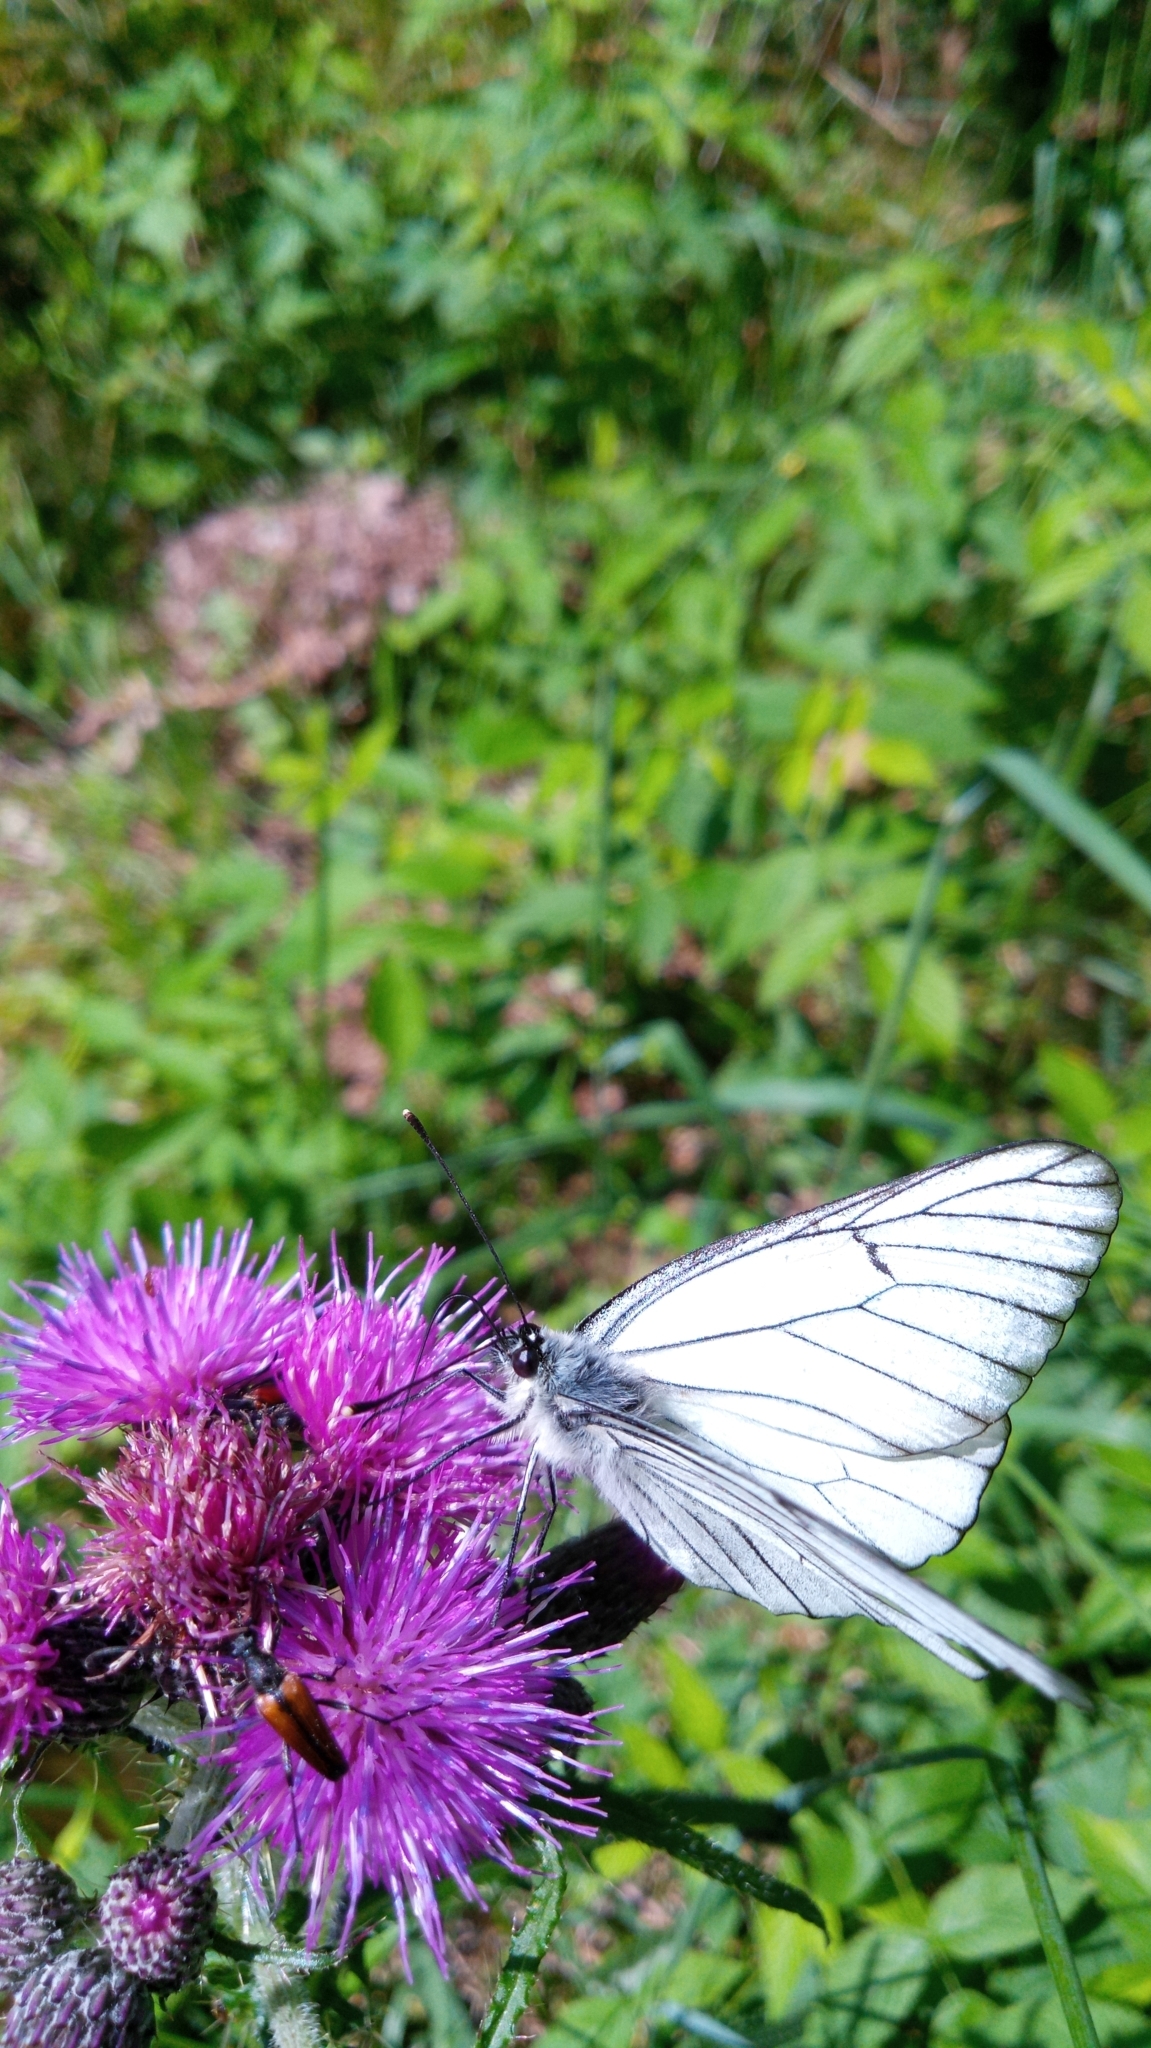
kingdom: Animalia
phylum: Arthropoda
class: Insecta
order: Lepidoptera
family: Pieridae
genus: Aporia
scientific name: Aporia crataegi
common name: Black-veined white
